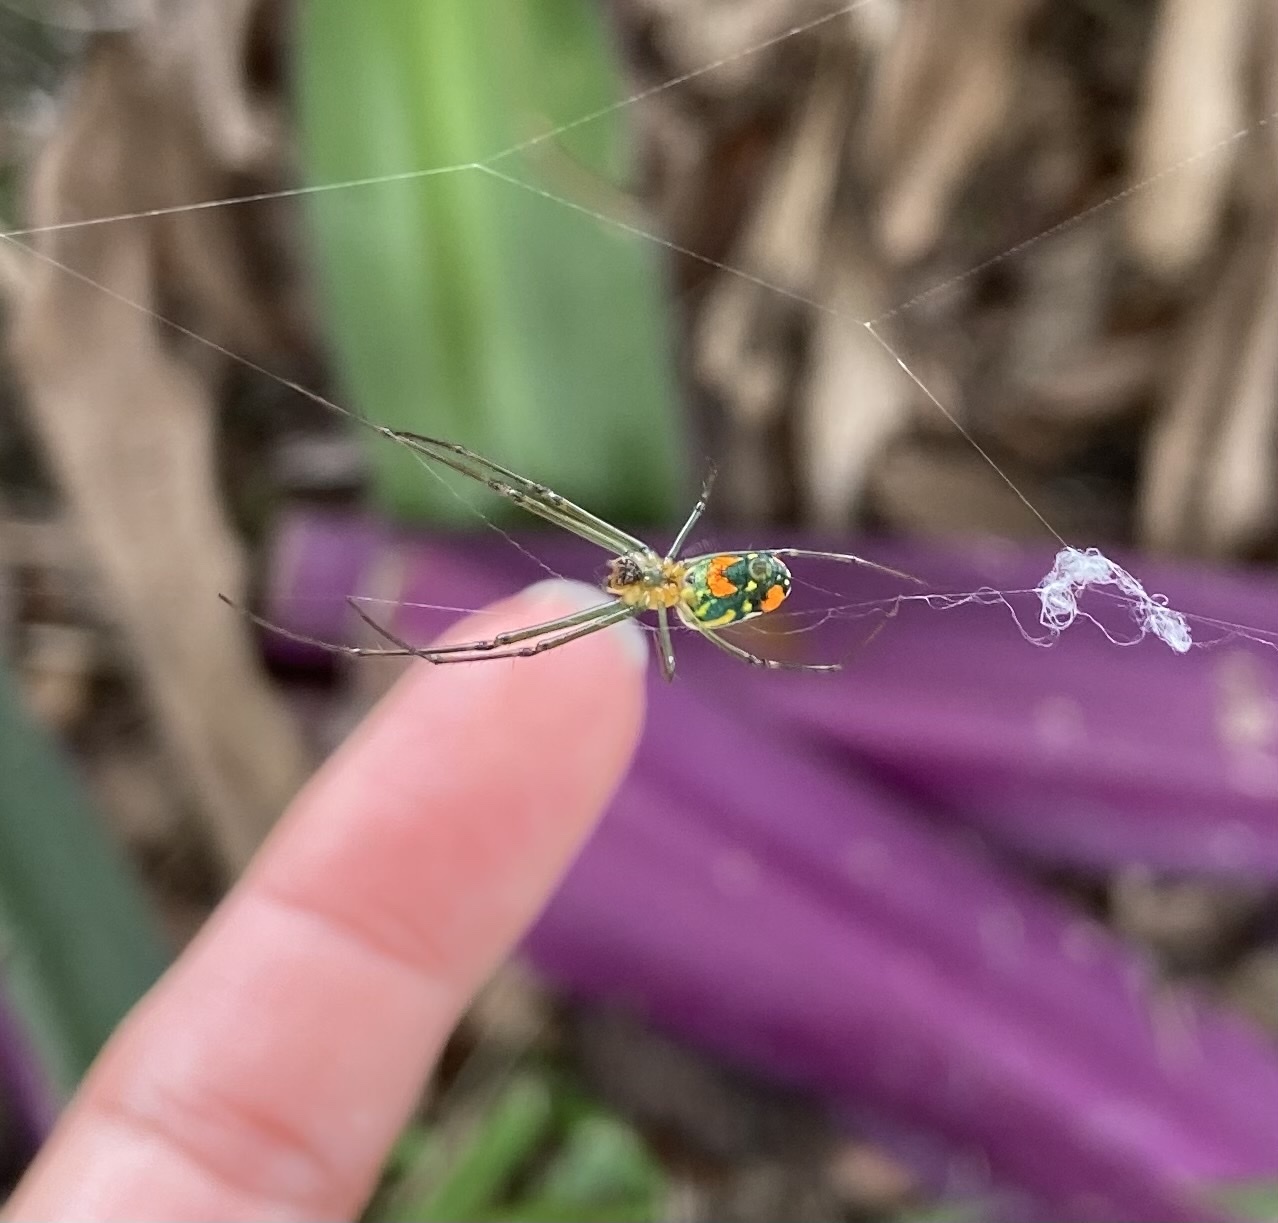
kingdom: Animalia
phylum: Arthropoda
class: Arachnida
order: Araneae
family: Tetragnathidae
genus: Leucauge
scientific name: Leucauge argyrobapta
